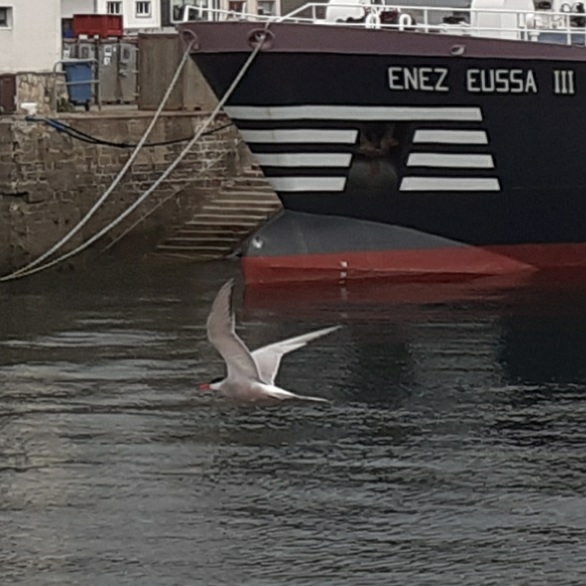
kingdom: Animalia
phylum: Chordata
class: Aves
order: Charadriiformes
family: Laridae
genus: Sterna
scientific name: Sterna hirundo
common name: Common tern
